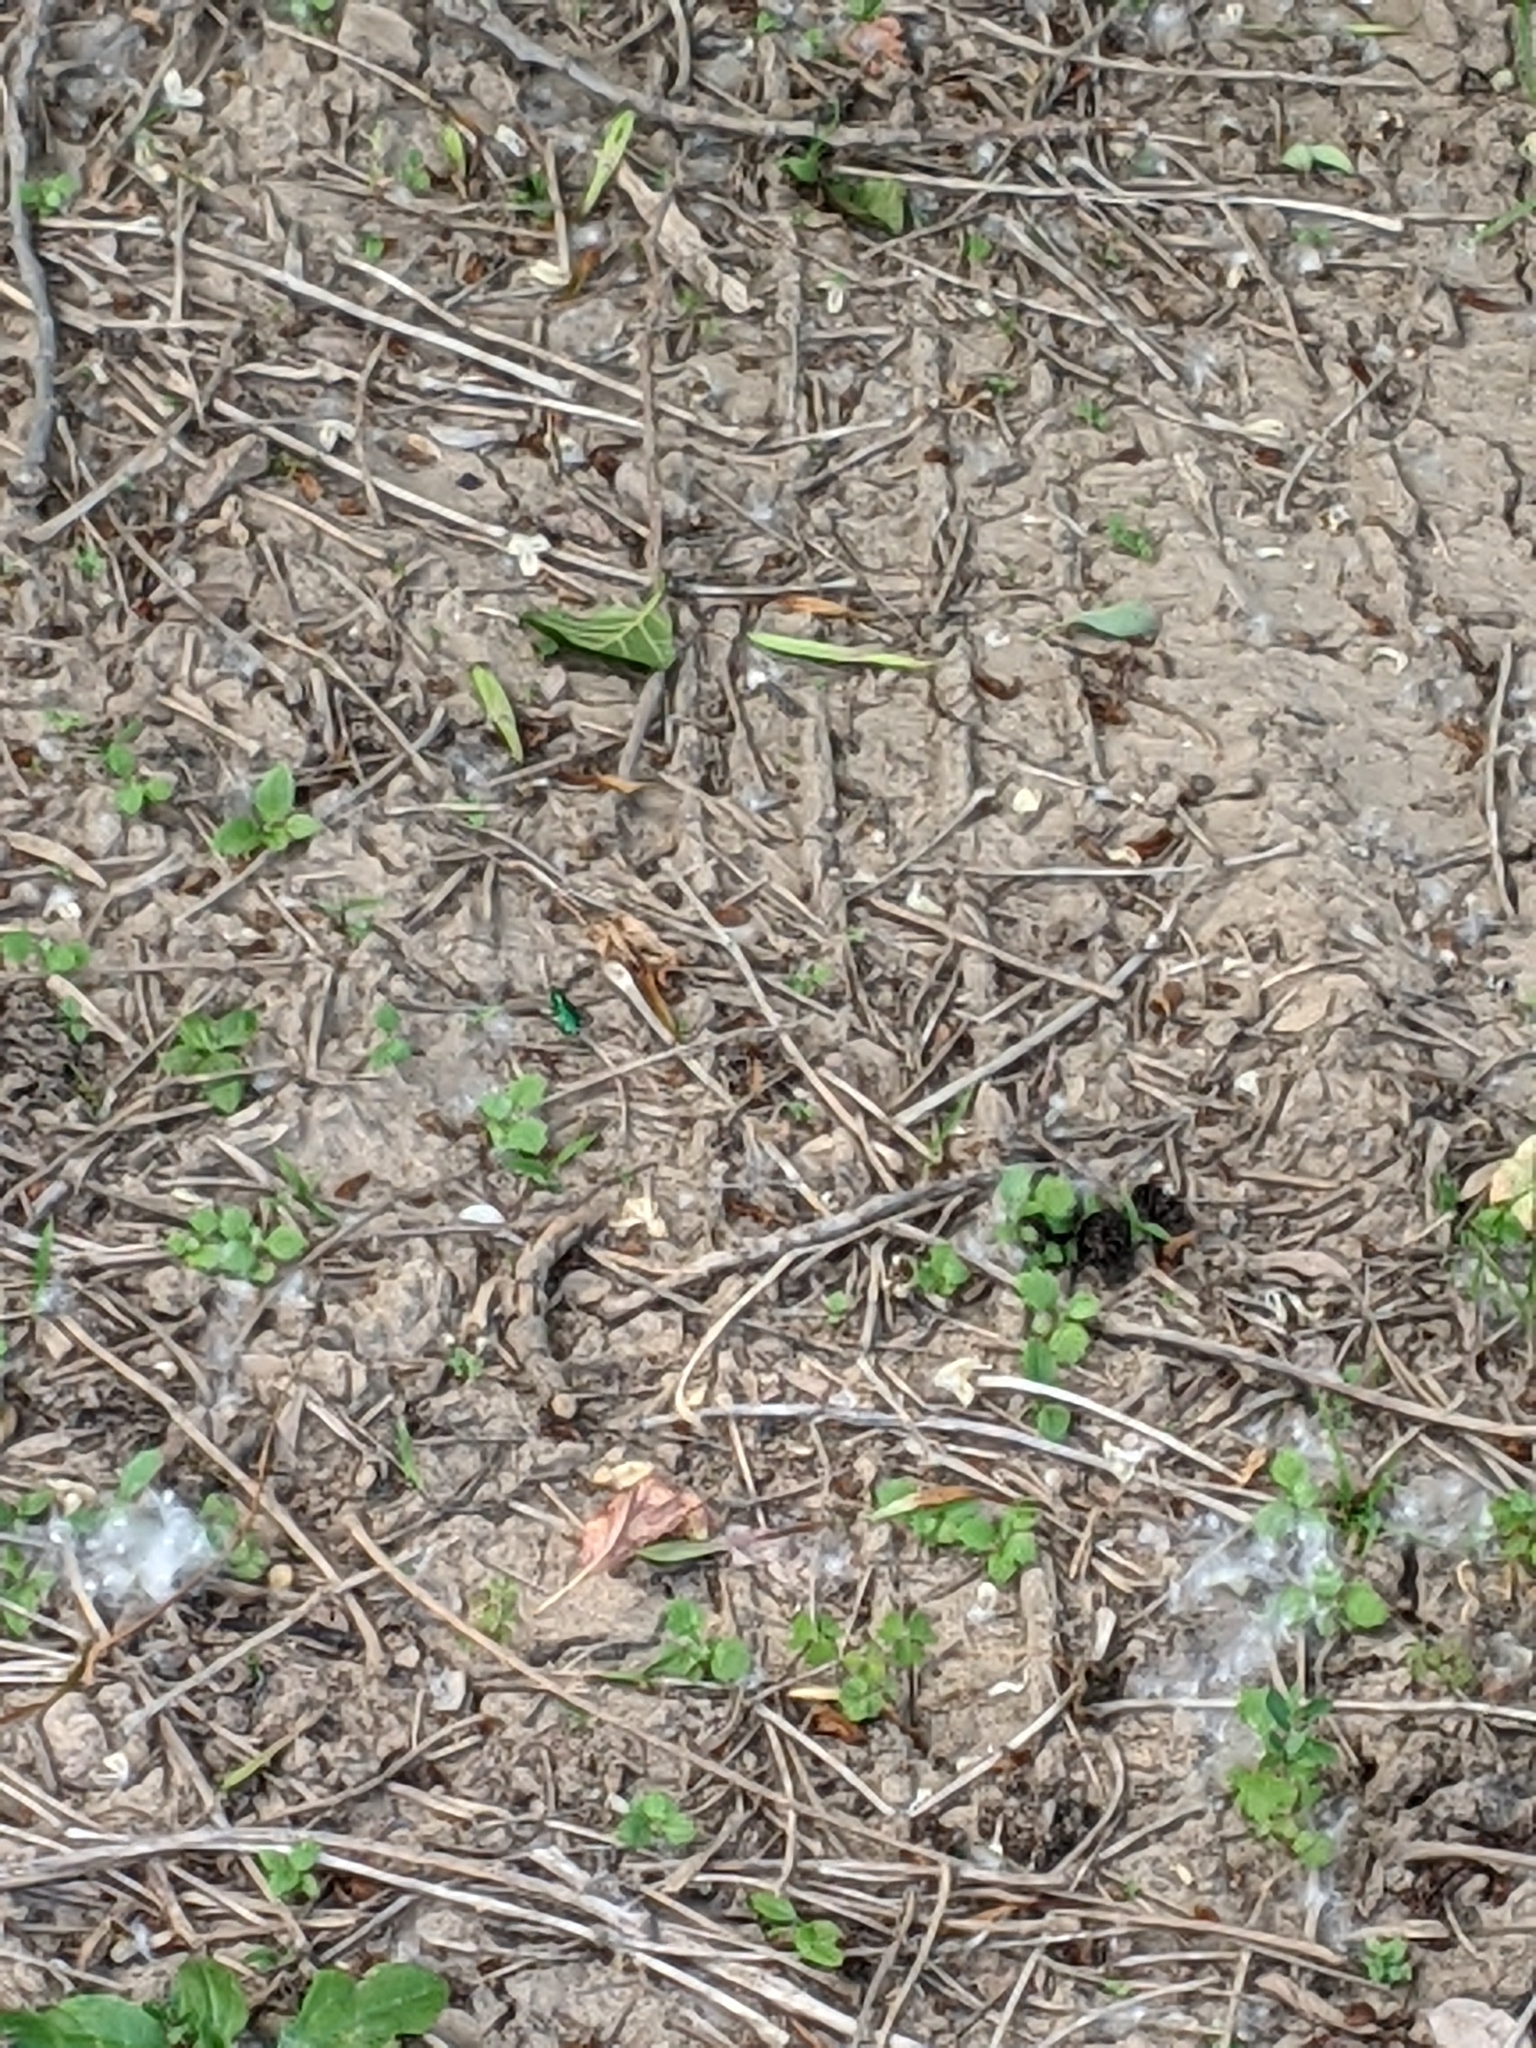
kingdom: Animalia
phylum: Arthropoda
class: Insecta
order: Coleoptera
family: Carabidae
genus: Cicindela
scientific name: Cicindela sexguttata
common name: Six-spotted tiger beetle
